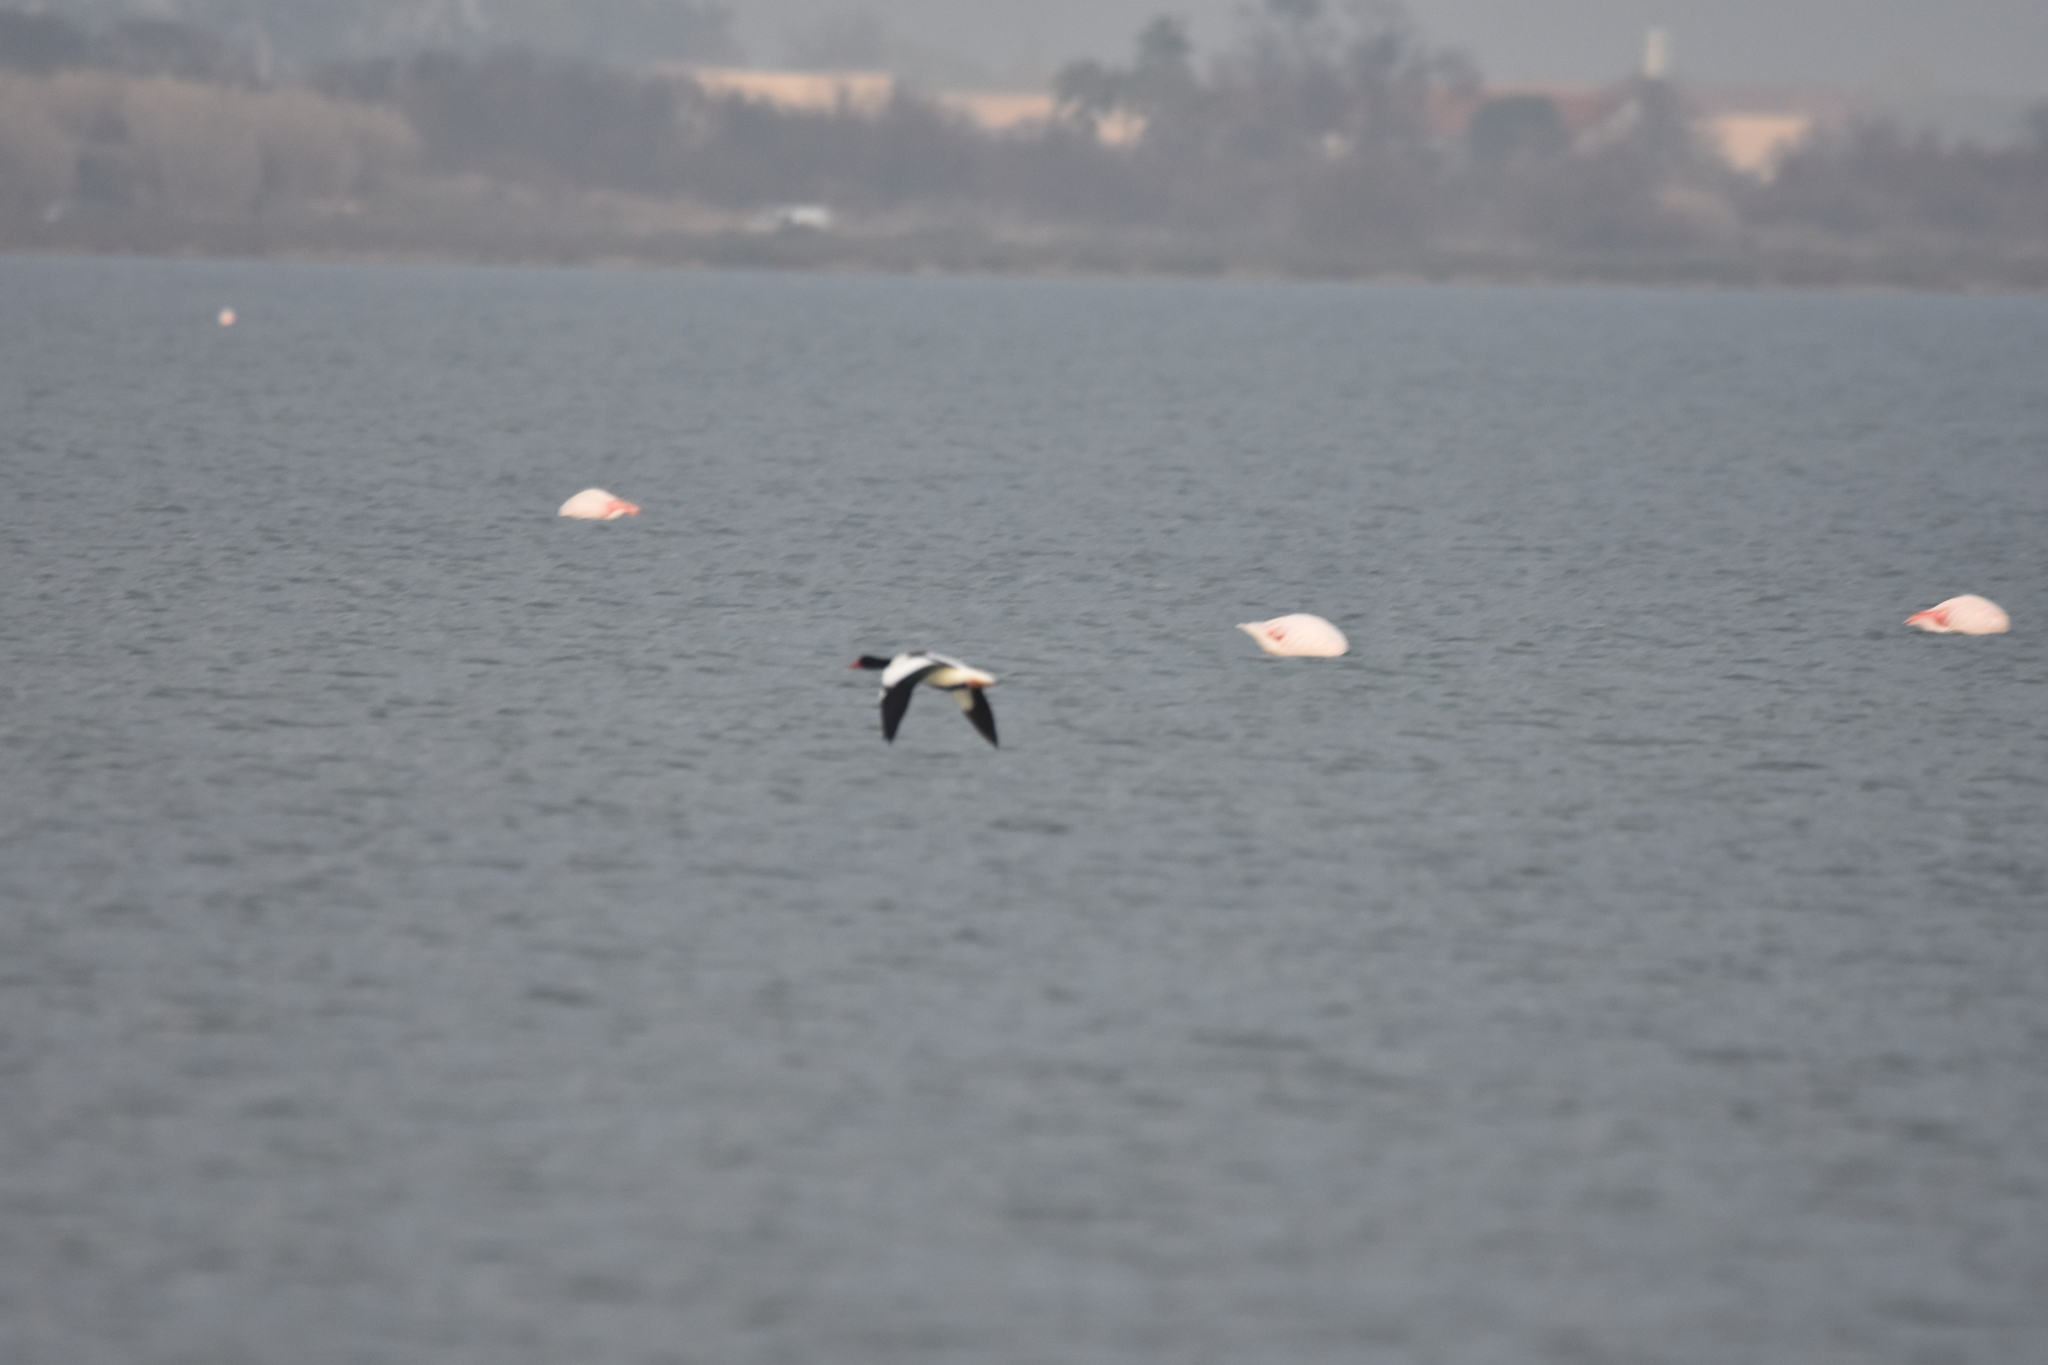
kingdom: Animalia
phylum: Chordata
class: Aves
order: Anseriformes
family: Anatidae
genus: Tadorna
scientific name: Tadorna tadorna
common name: Common shelduck
